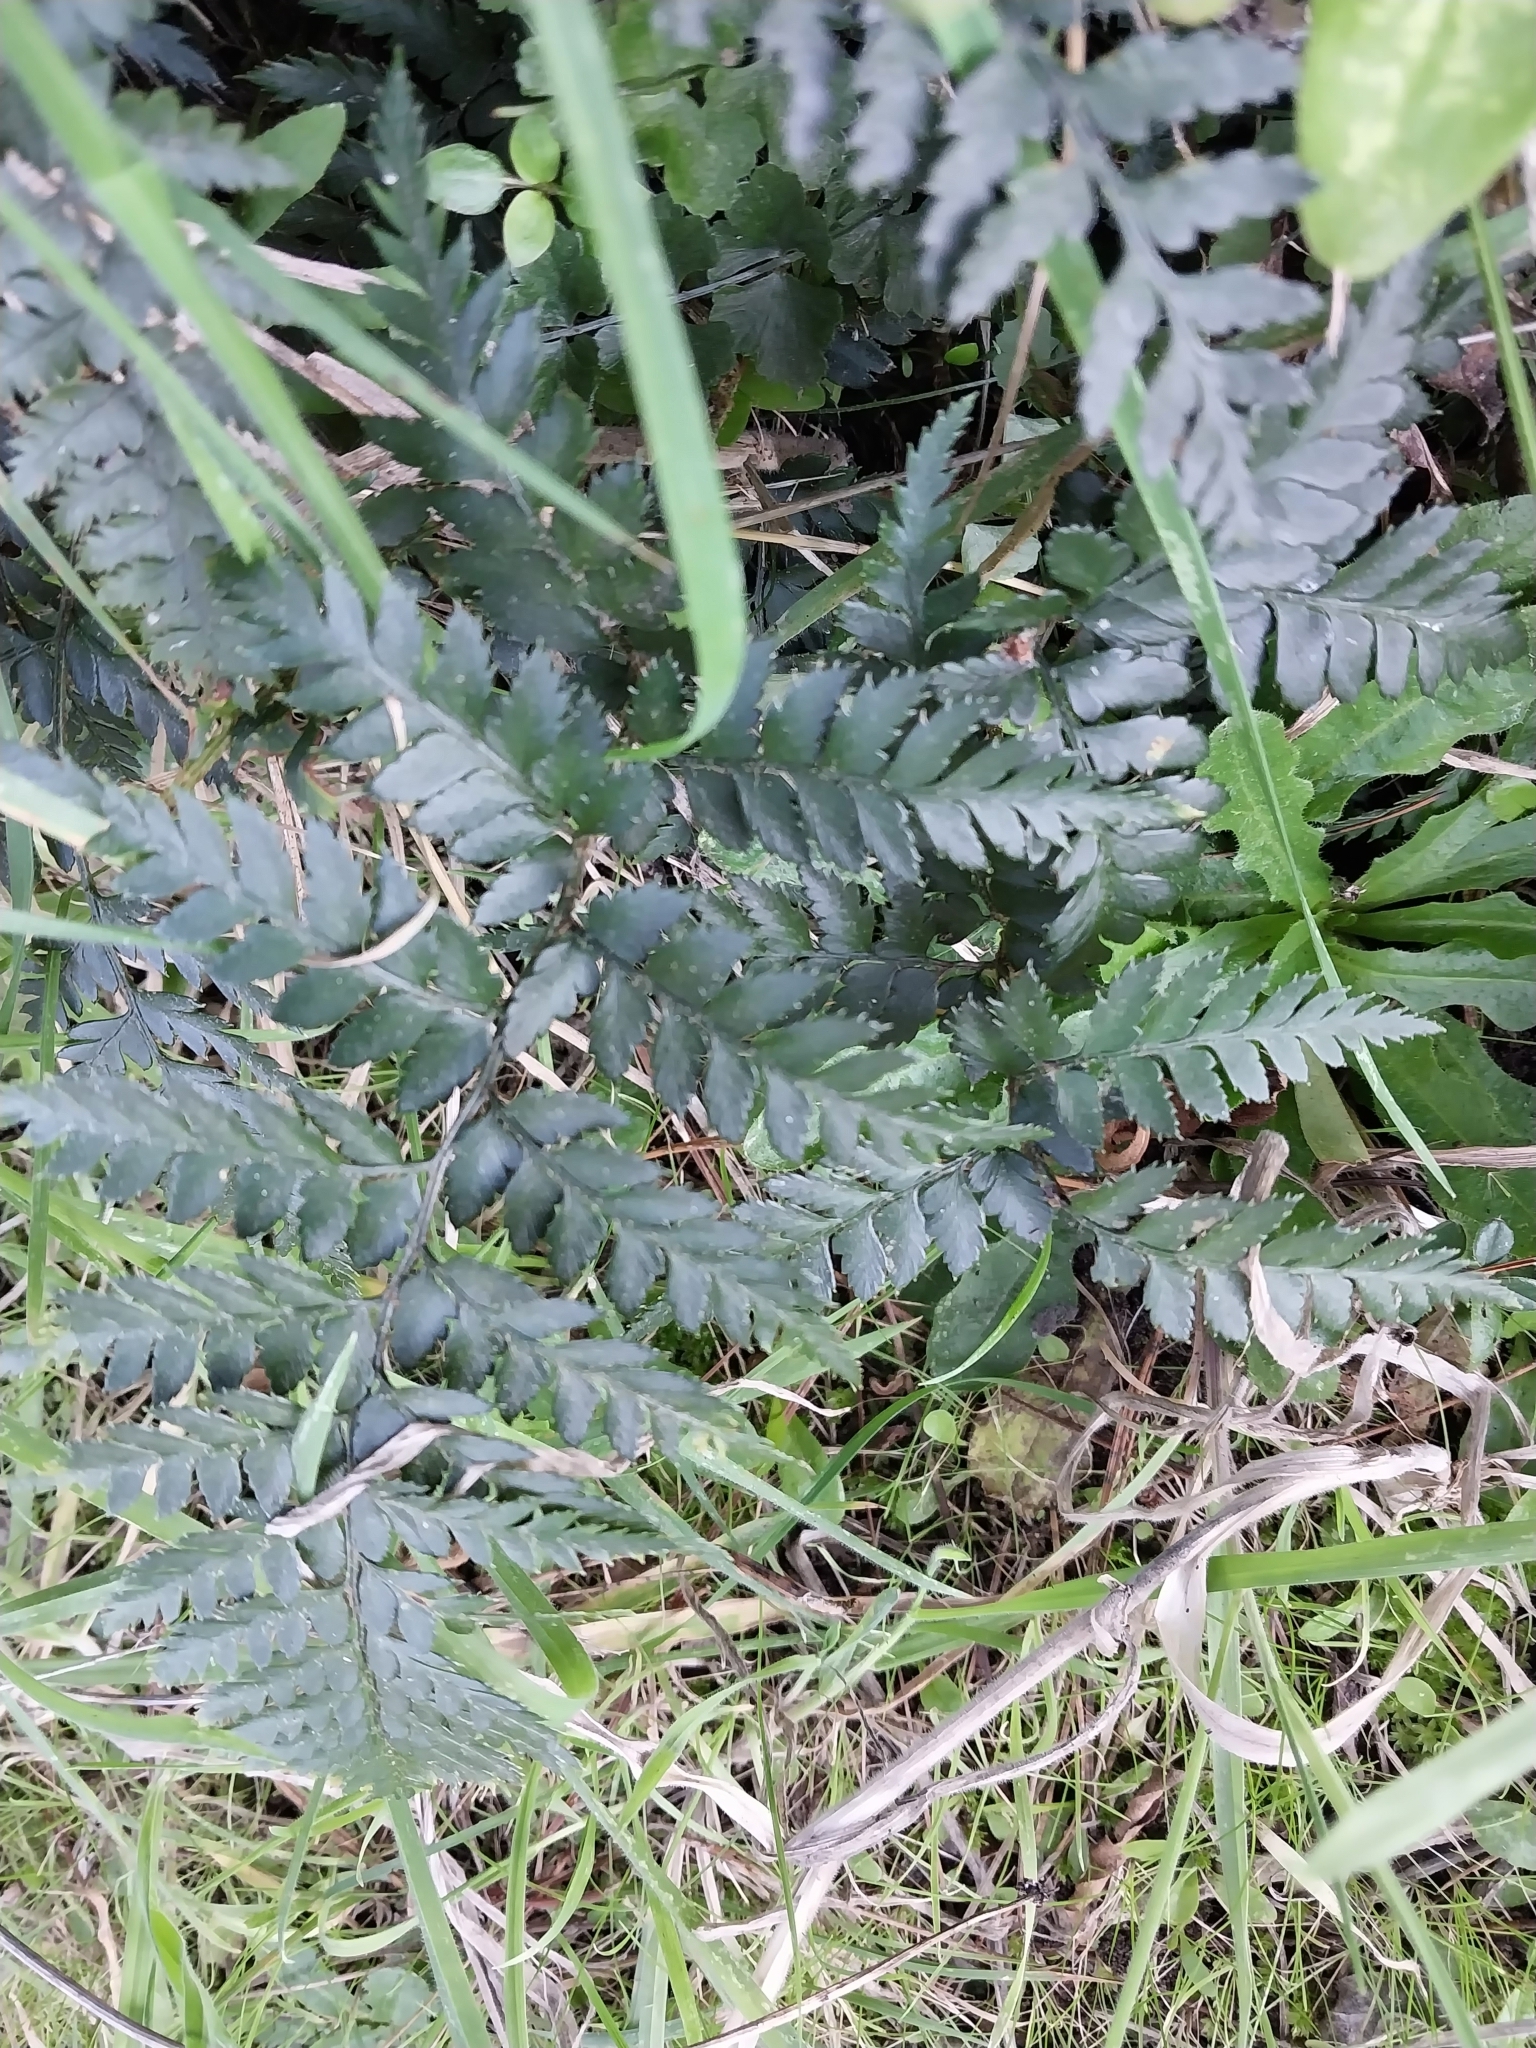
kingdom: Plantae
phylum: Tracheophyta
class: Polypodiopsida
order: Polypodiales
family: Dryopteridaceae
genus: Polystichum
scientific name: Polystichum oculatum
